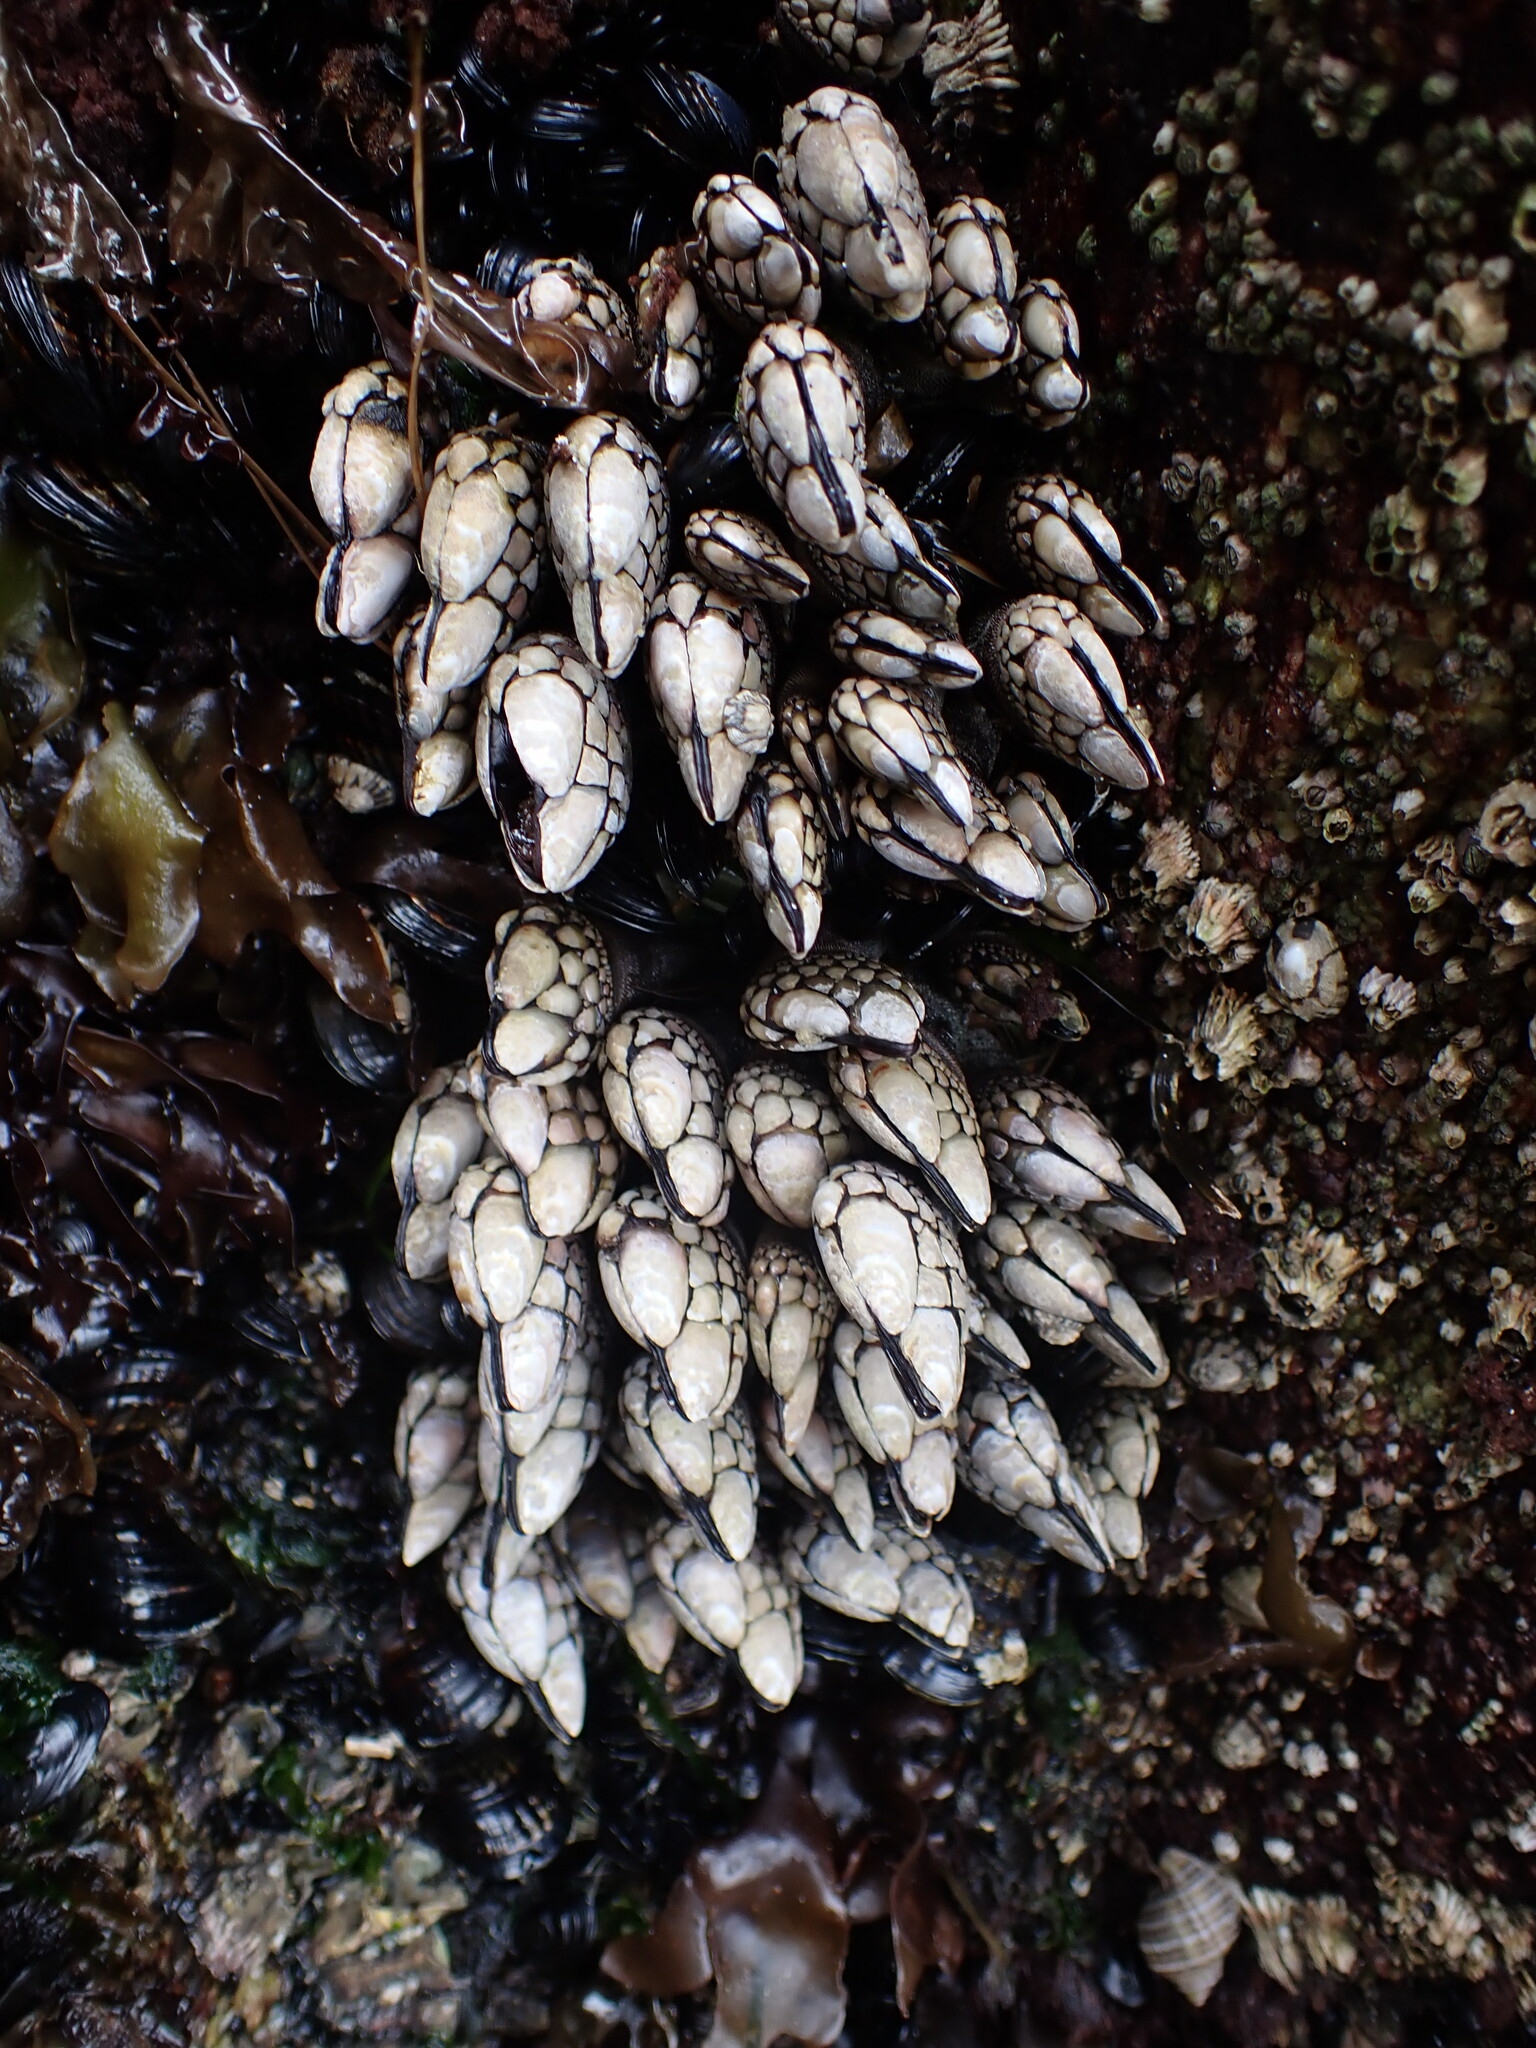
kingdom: Animalia
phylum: Arthropoda
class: Maxillopoda
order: Pedunculata
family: Pollicipedidae
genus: Pollicipes
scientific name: Pollicipes polymerus
